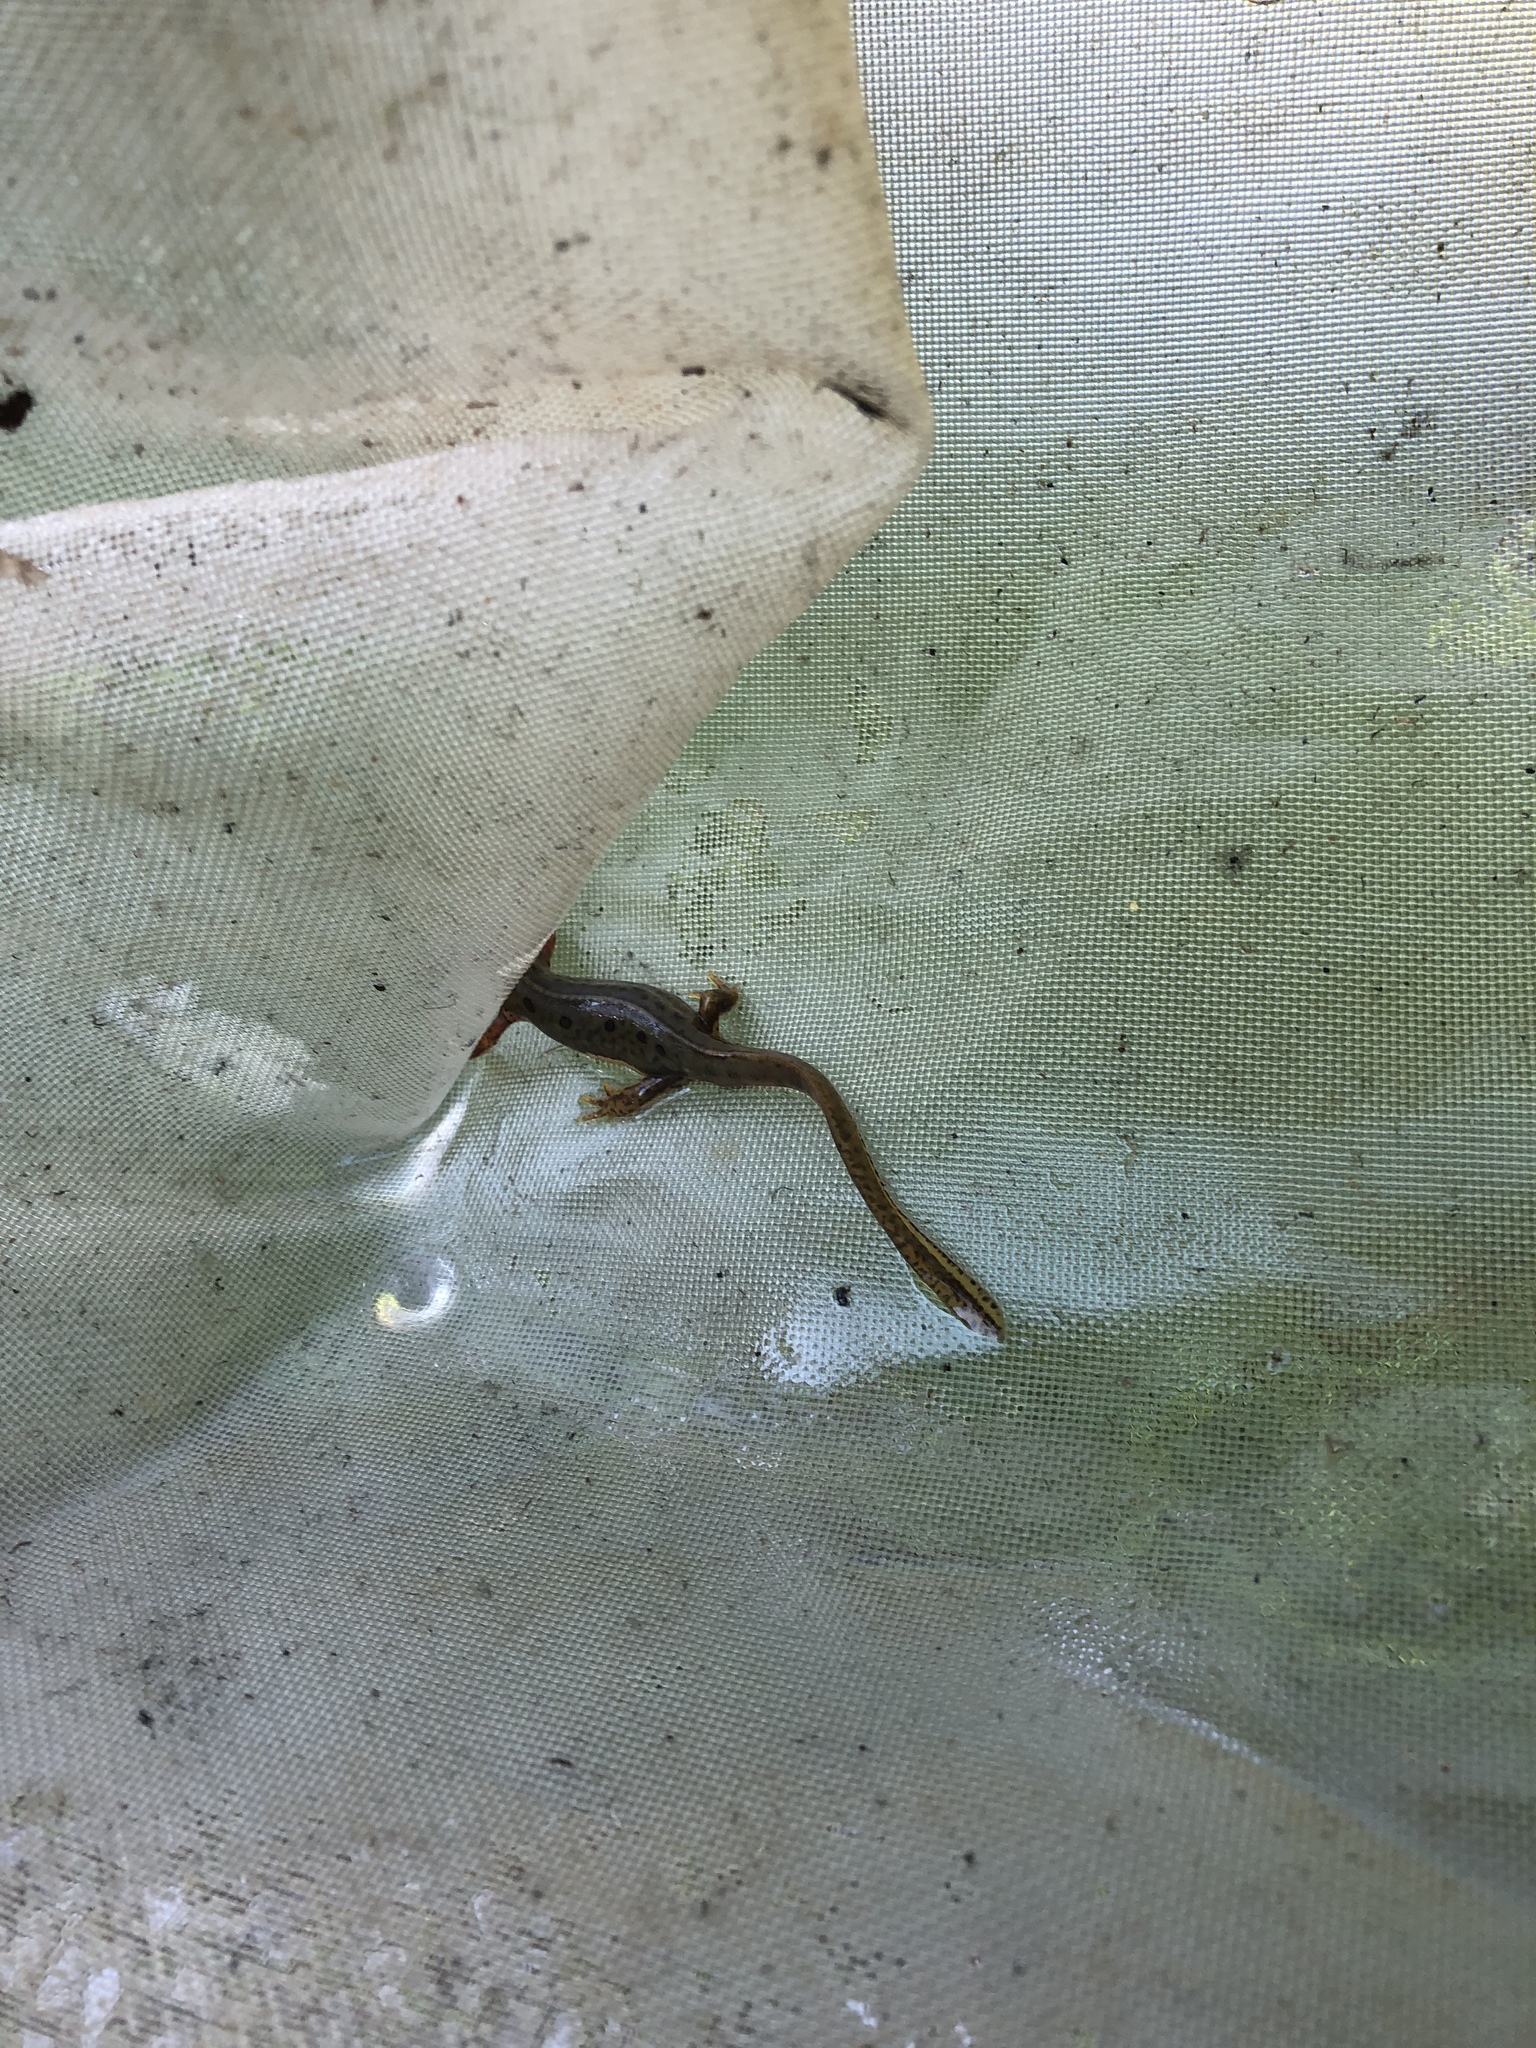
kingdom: Animalia
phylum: Chordata
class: Amphibia
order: Caudata
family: Salamandridae
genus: Notophthalmus
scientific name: Notophthalmus viridescens
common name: Eastern newt
